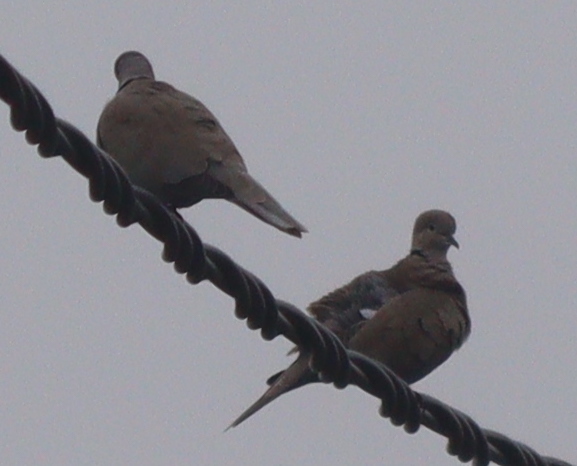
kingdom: Animalia
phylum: Chordata
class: Aves
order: Columbiformes
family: Columbidae
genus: Streptopelia
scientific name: Streptopelia decaocto
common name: Eurasian collared dove
